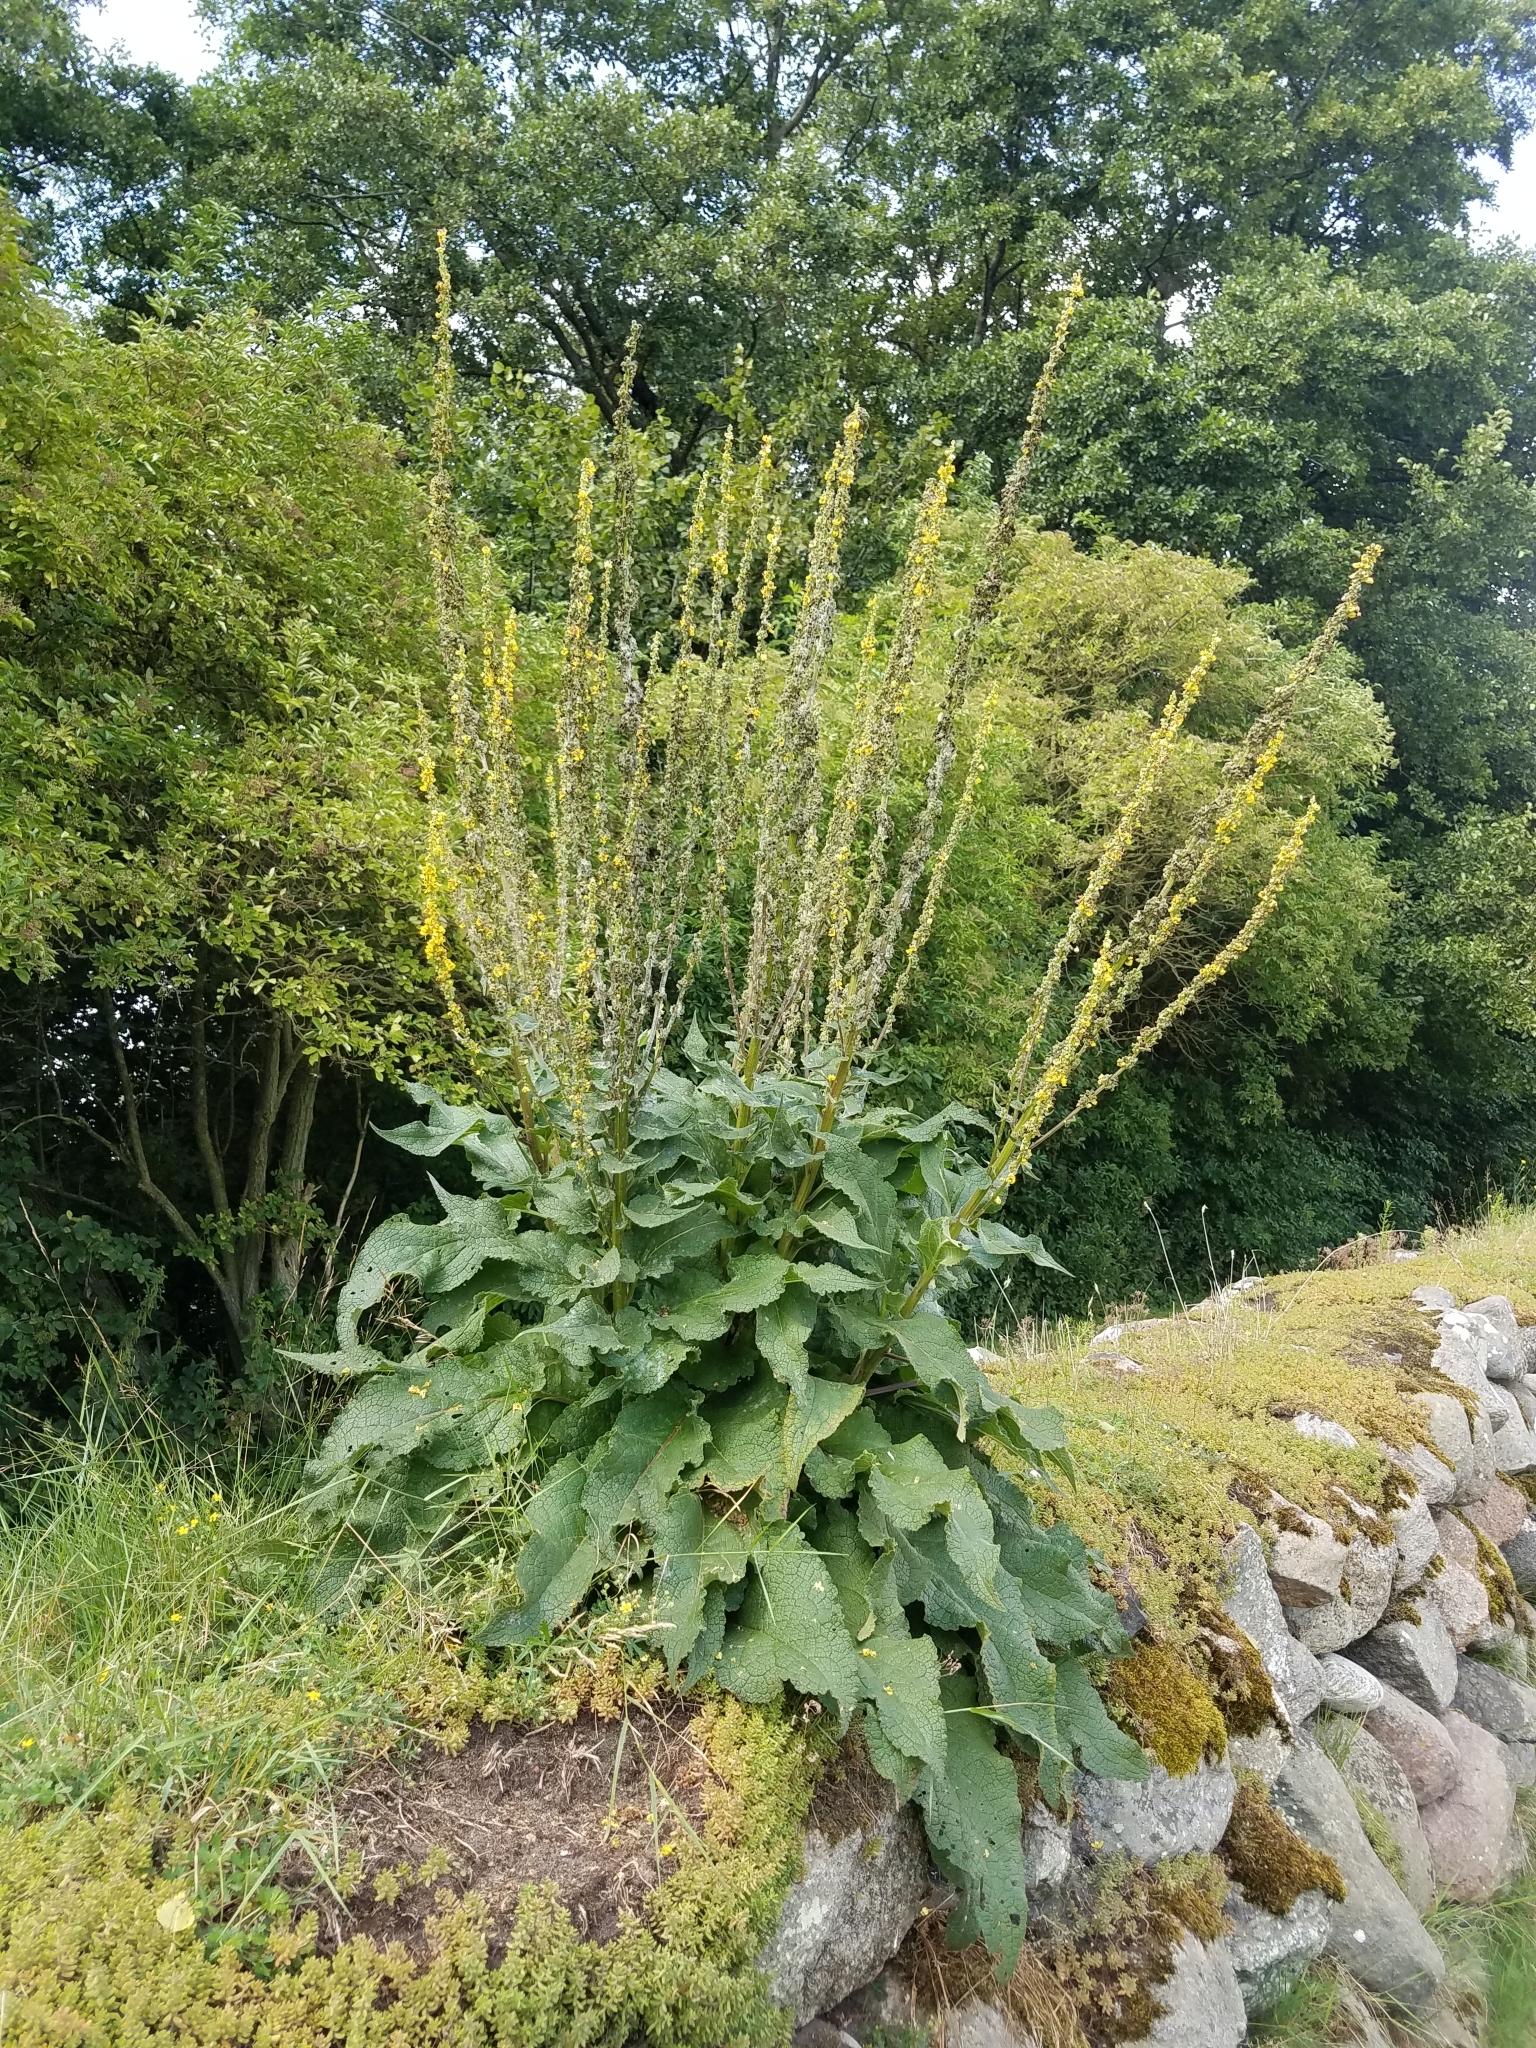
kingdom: Plantae
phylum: Tracheophyta
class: Magnoliopsida
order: Lamiales
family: Scrophulariaceae
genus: Verbascum
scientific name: Verbascum nigrum
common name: Dark mullein
